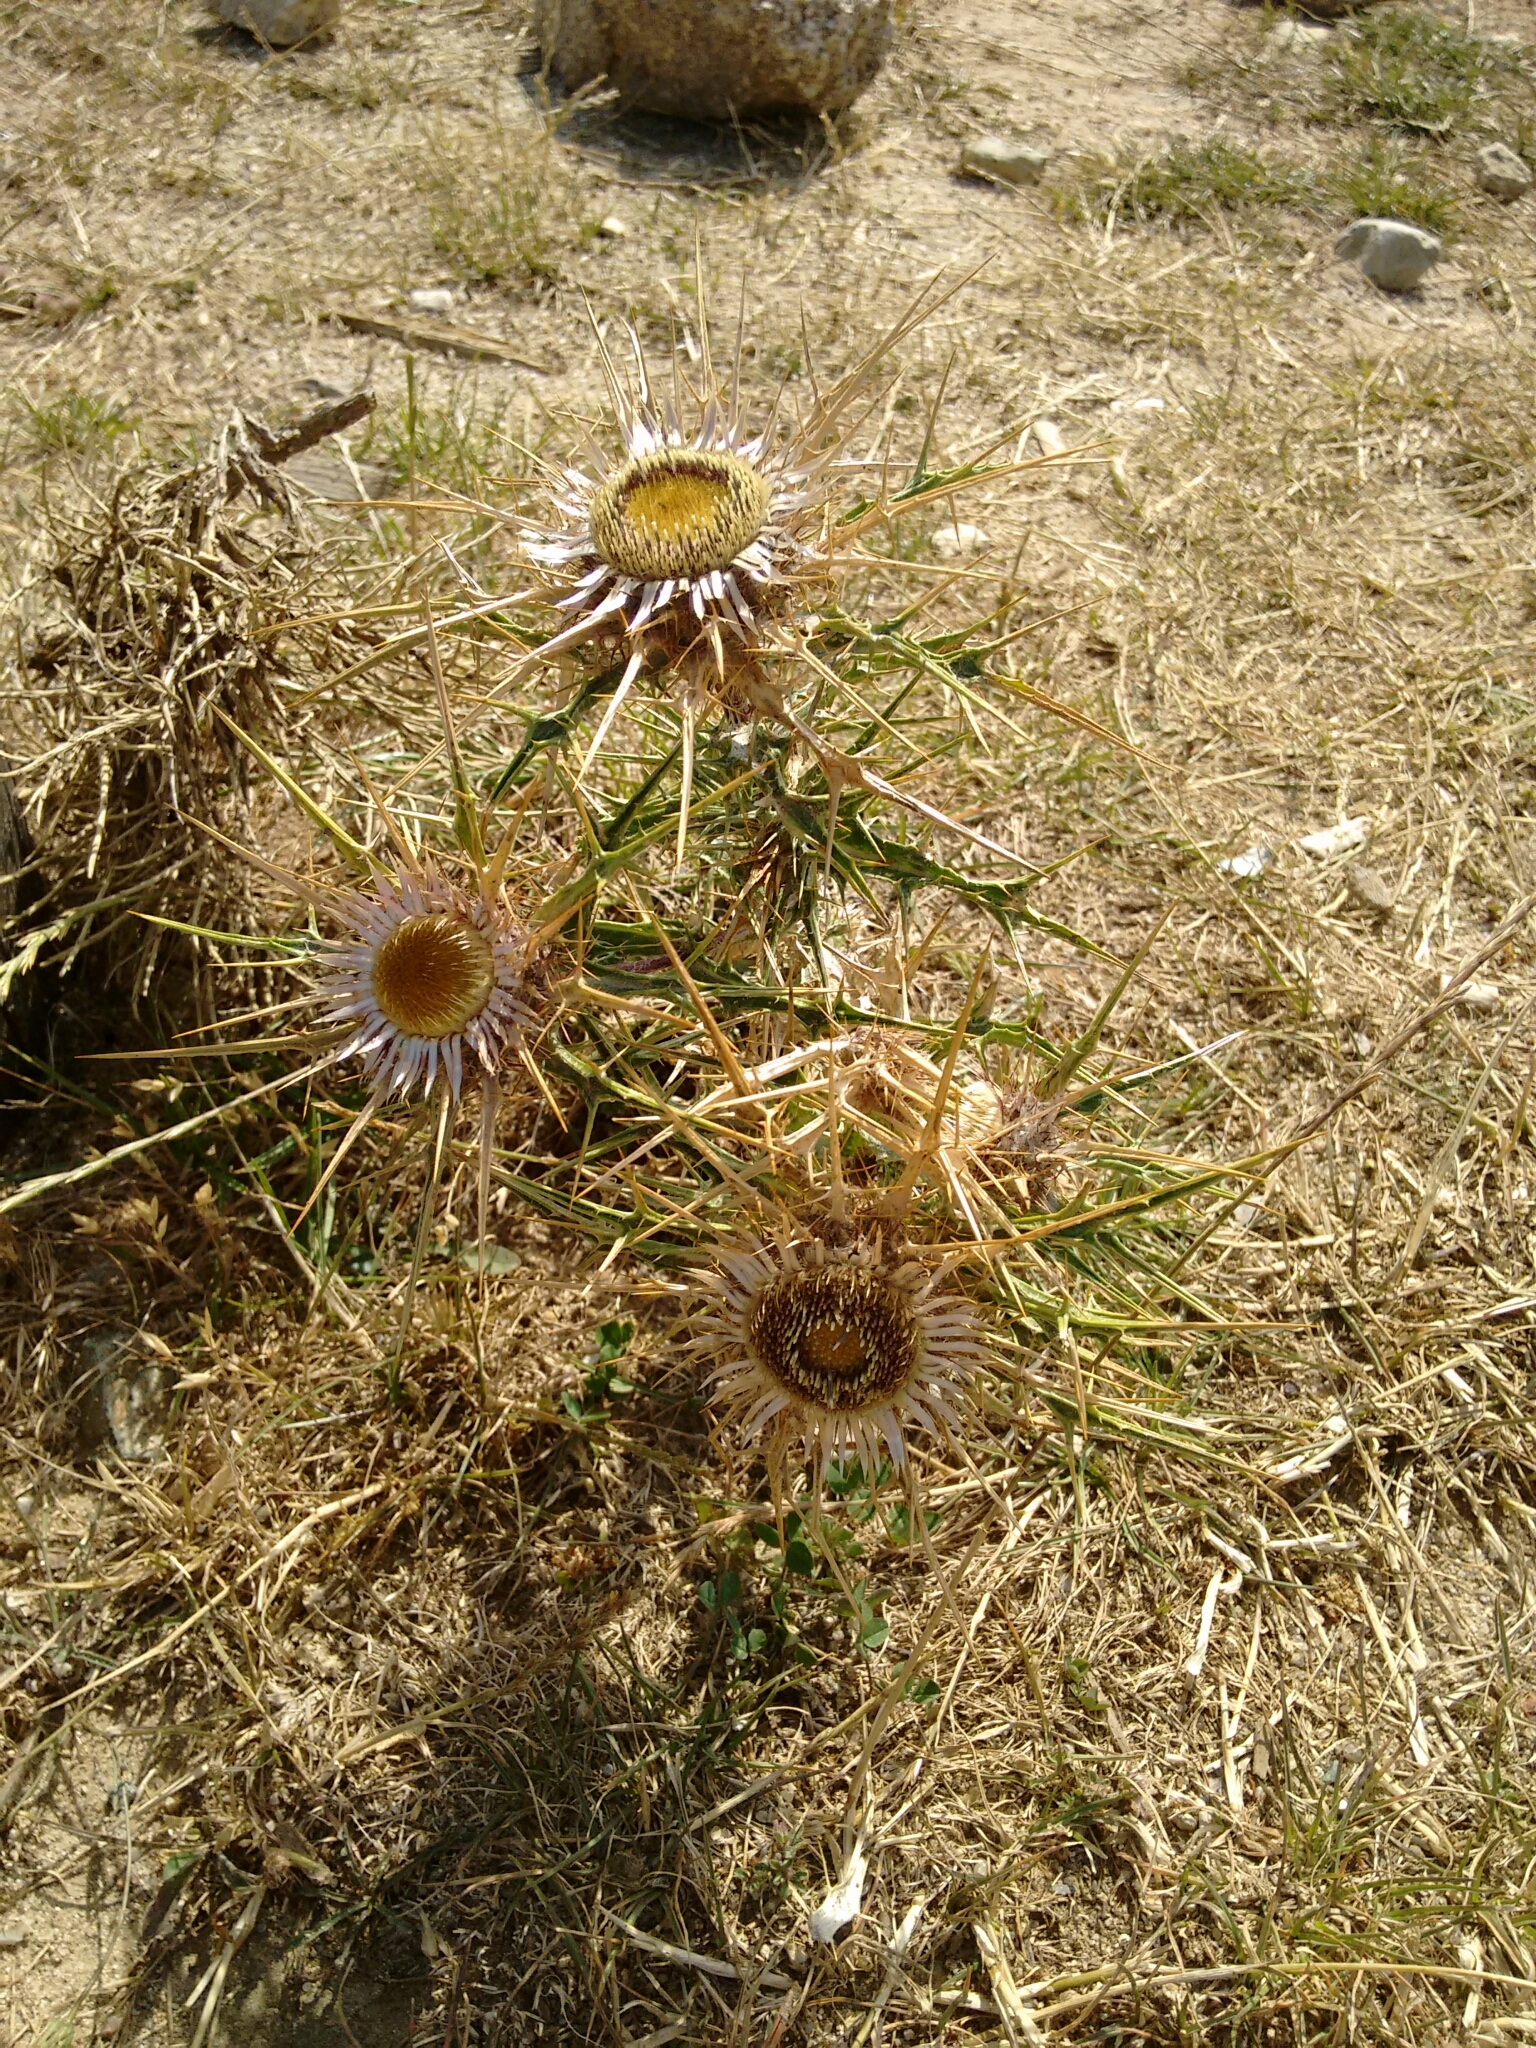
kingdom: Plantae
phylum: Tracheophyta
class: Magnoliopsida
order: Asterales
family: Asteraceae
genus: Chamaeleon
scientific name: Chamaeleon macrocephalus
